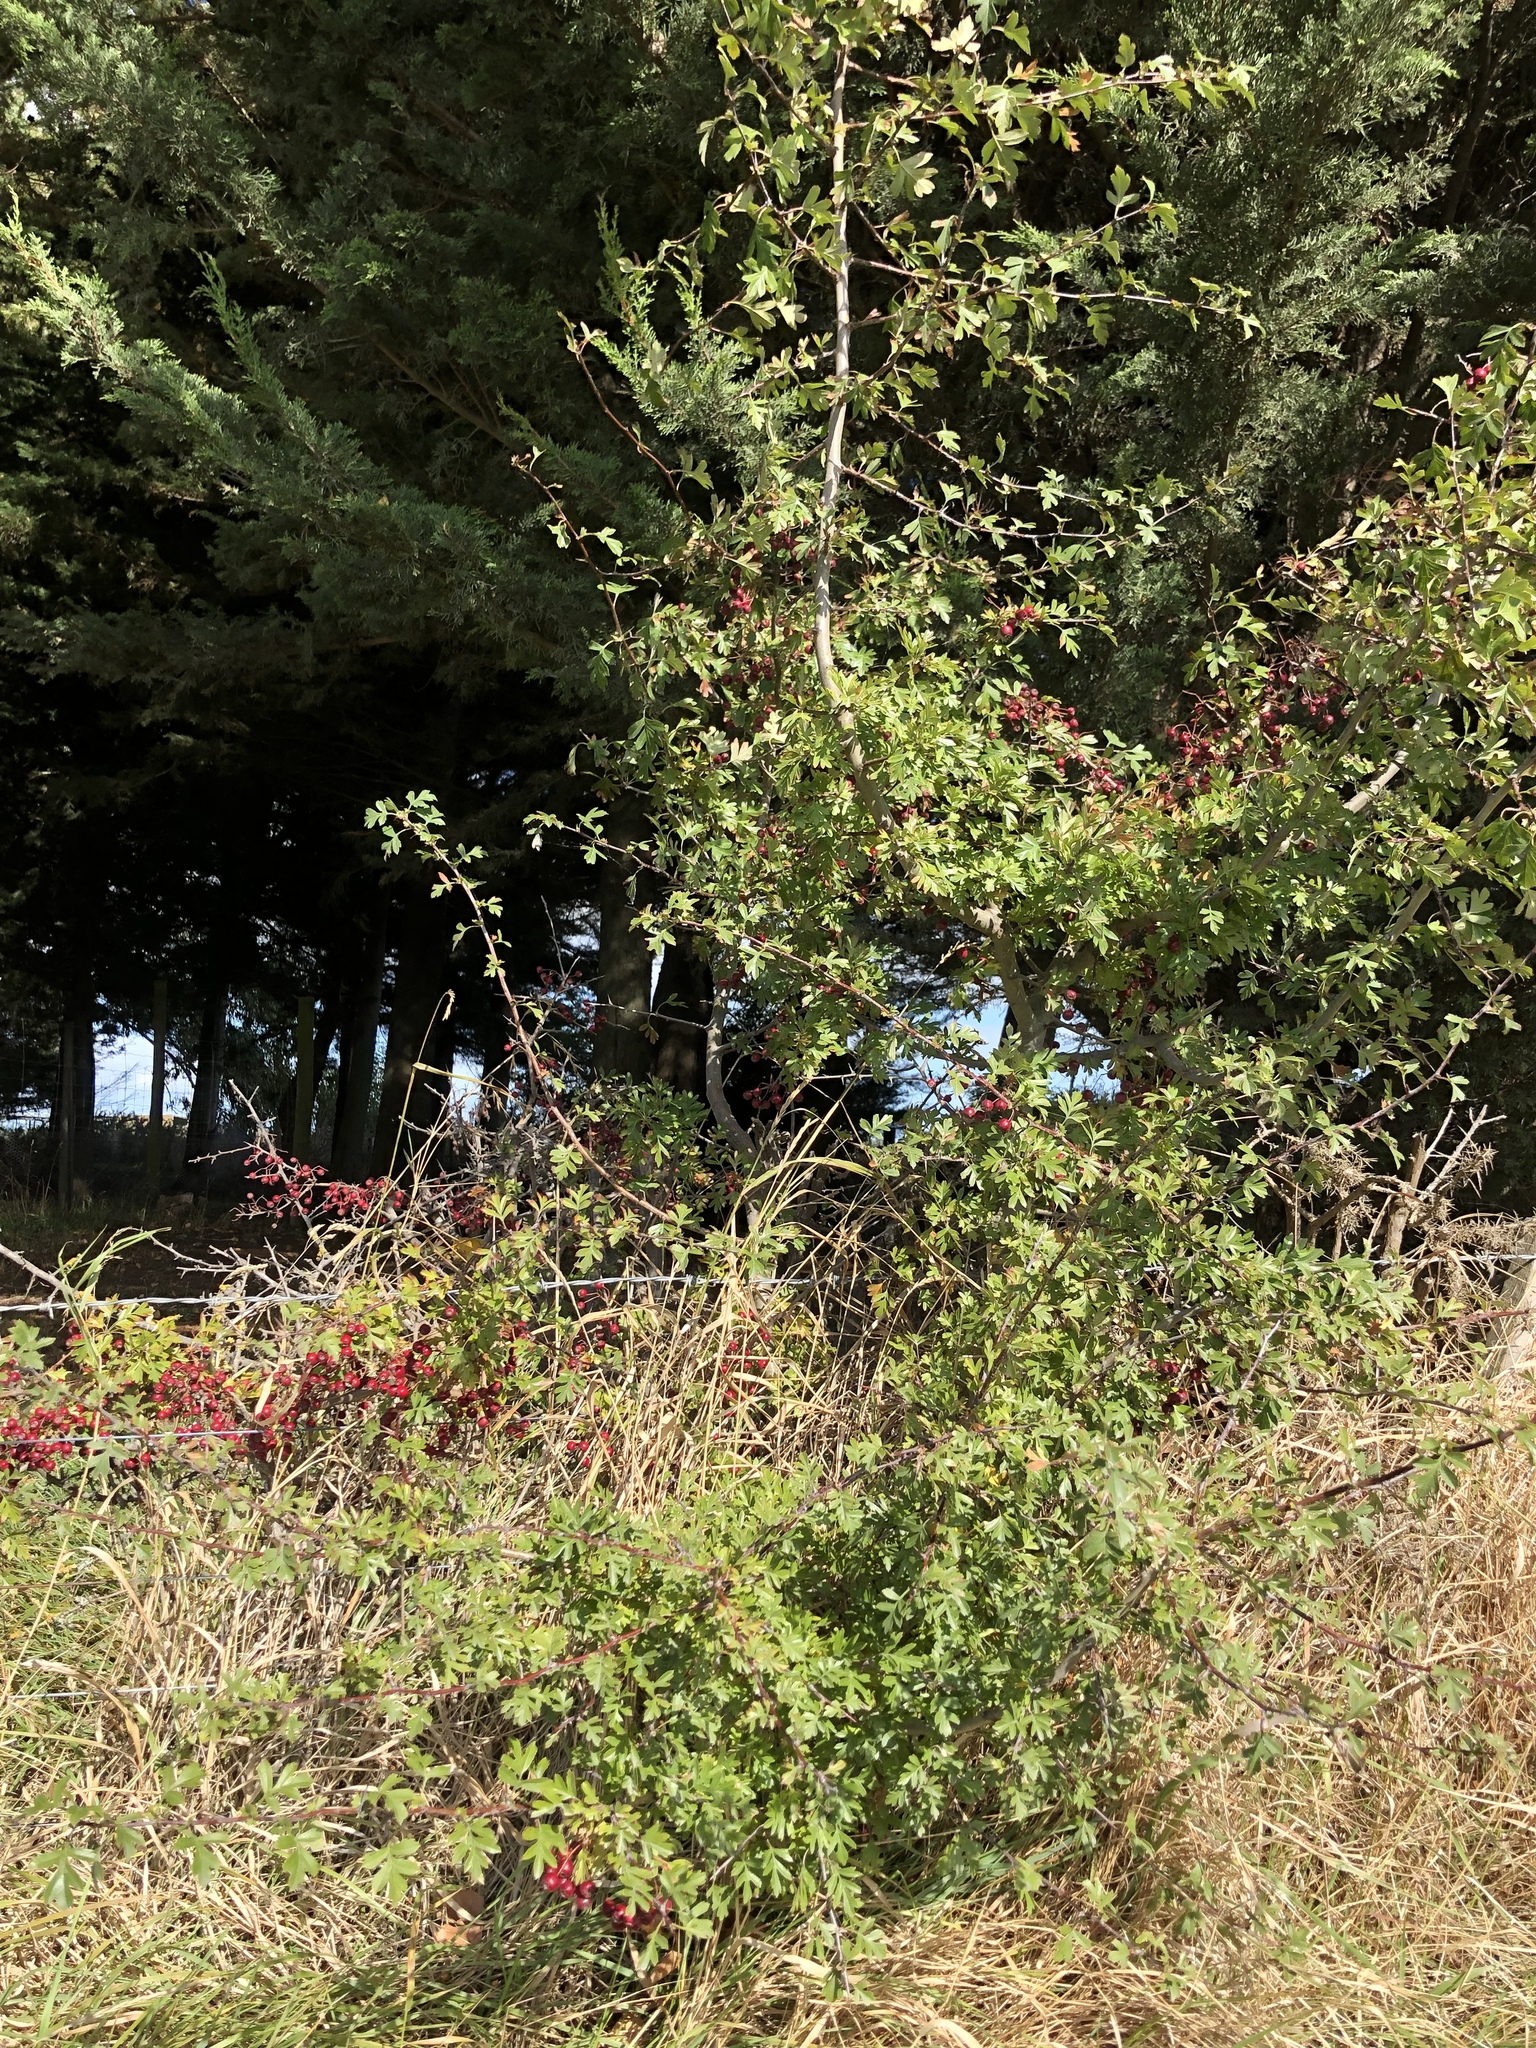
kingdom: Plantae
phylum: Tracheophyta
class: Magnoliopsida
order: Rosales
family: Rosaceae
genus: Crataegus
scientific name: Crataegus monogyna
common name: Hawthorn
